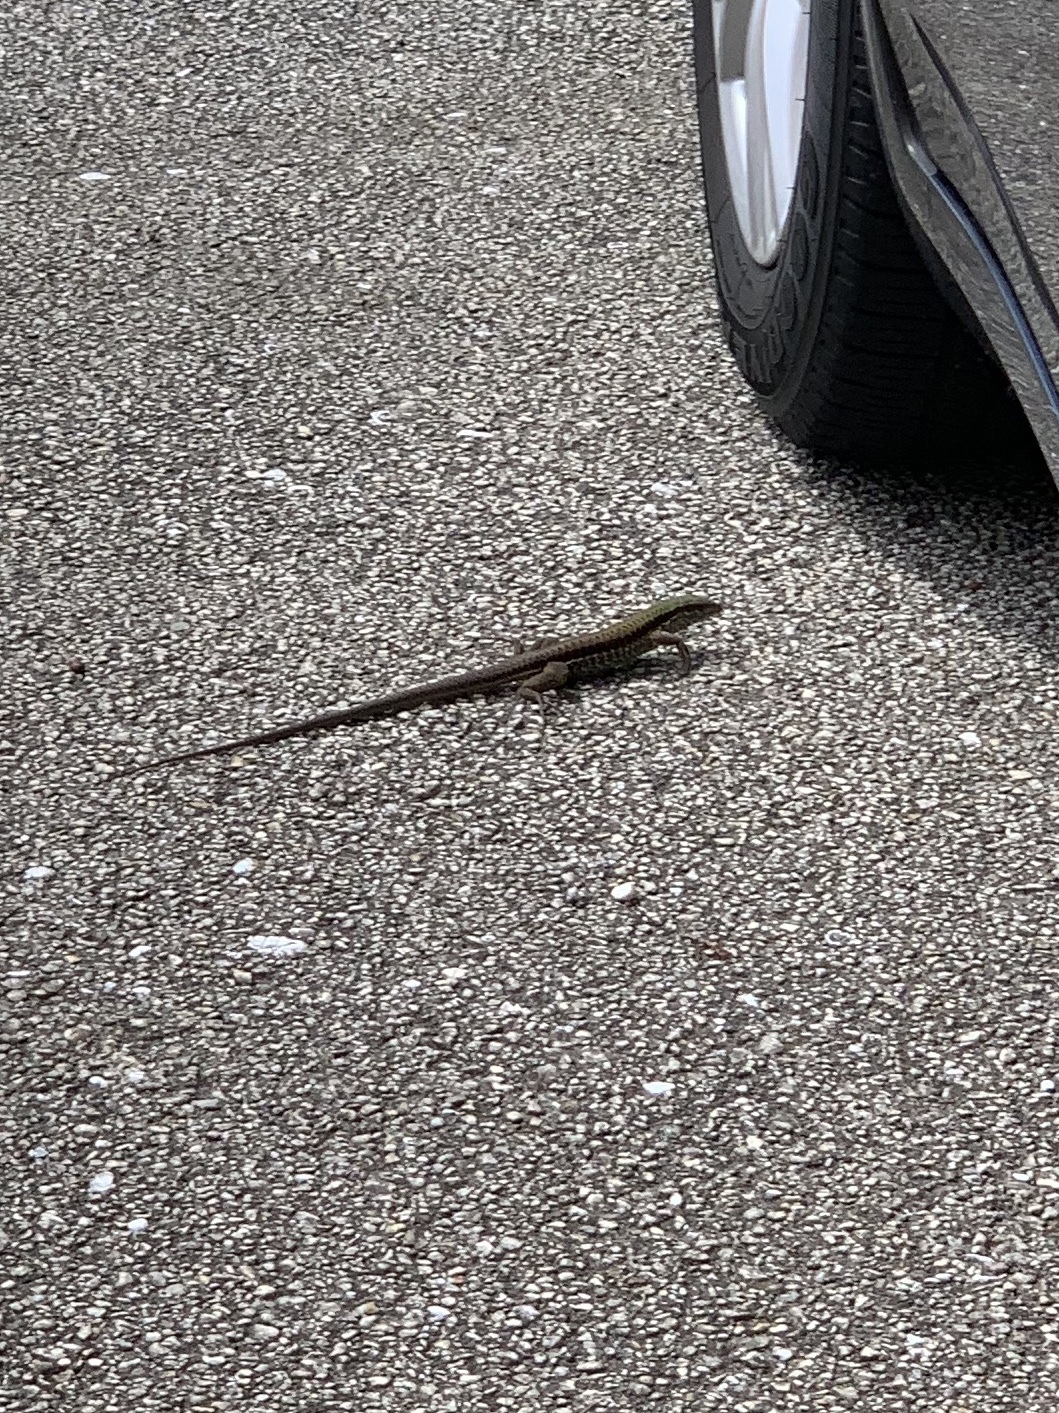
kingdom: Animalia
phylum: Chordata
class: Squamata
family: Teiidae
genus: Ameiva
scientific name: Ameiva ameiva
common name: Giant ameiva
